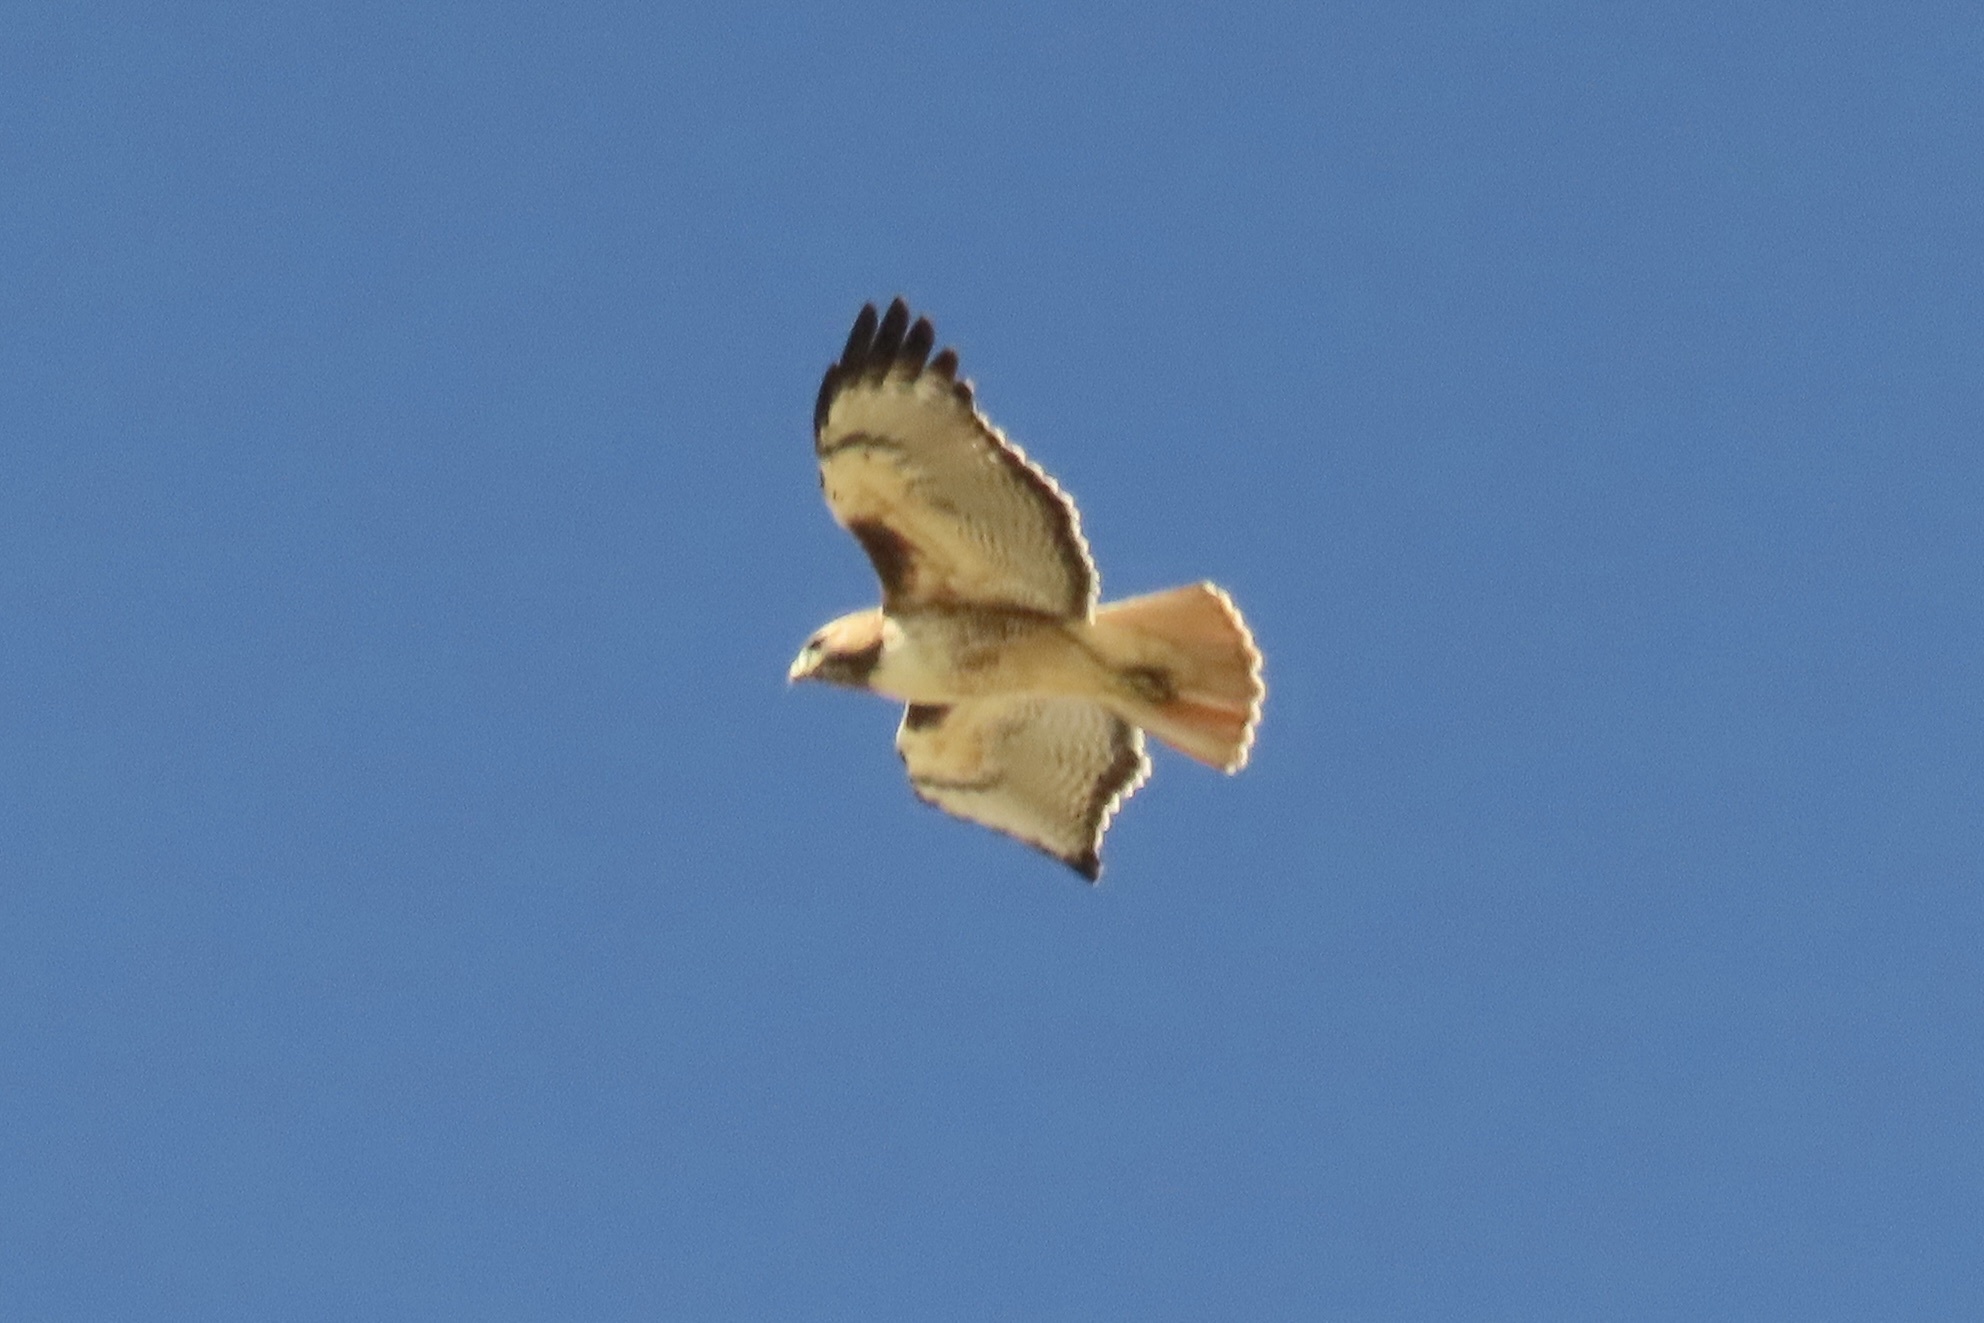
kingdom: Animalia
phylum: Chordata
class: Aves
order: Accipitriformes
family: Accipitridae
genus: Buteo
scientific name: Buteo jamaicensis
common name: Red-tailed hawk
